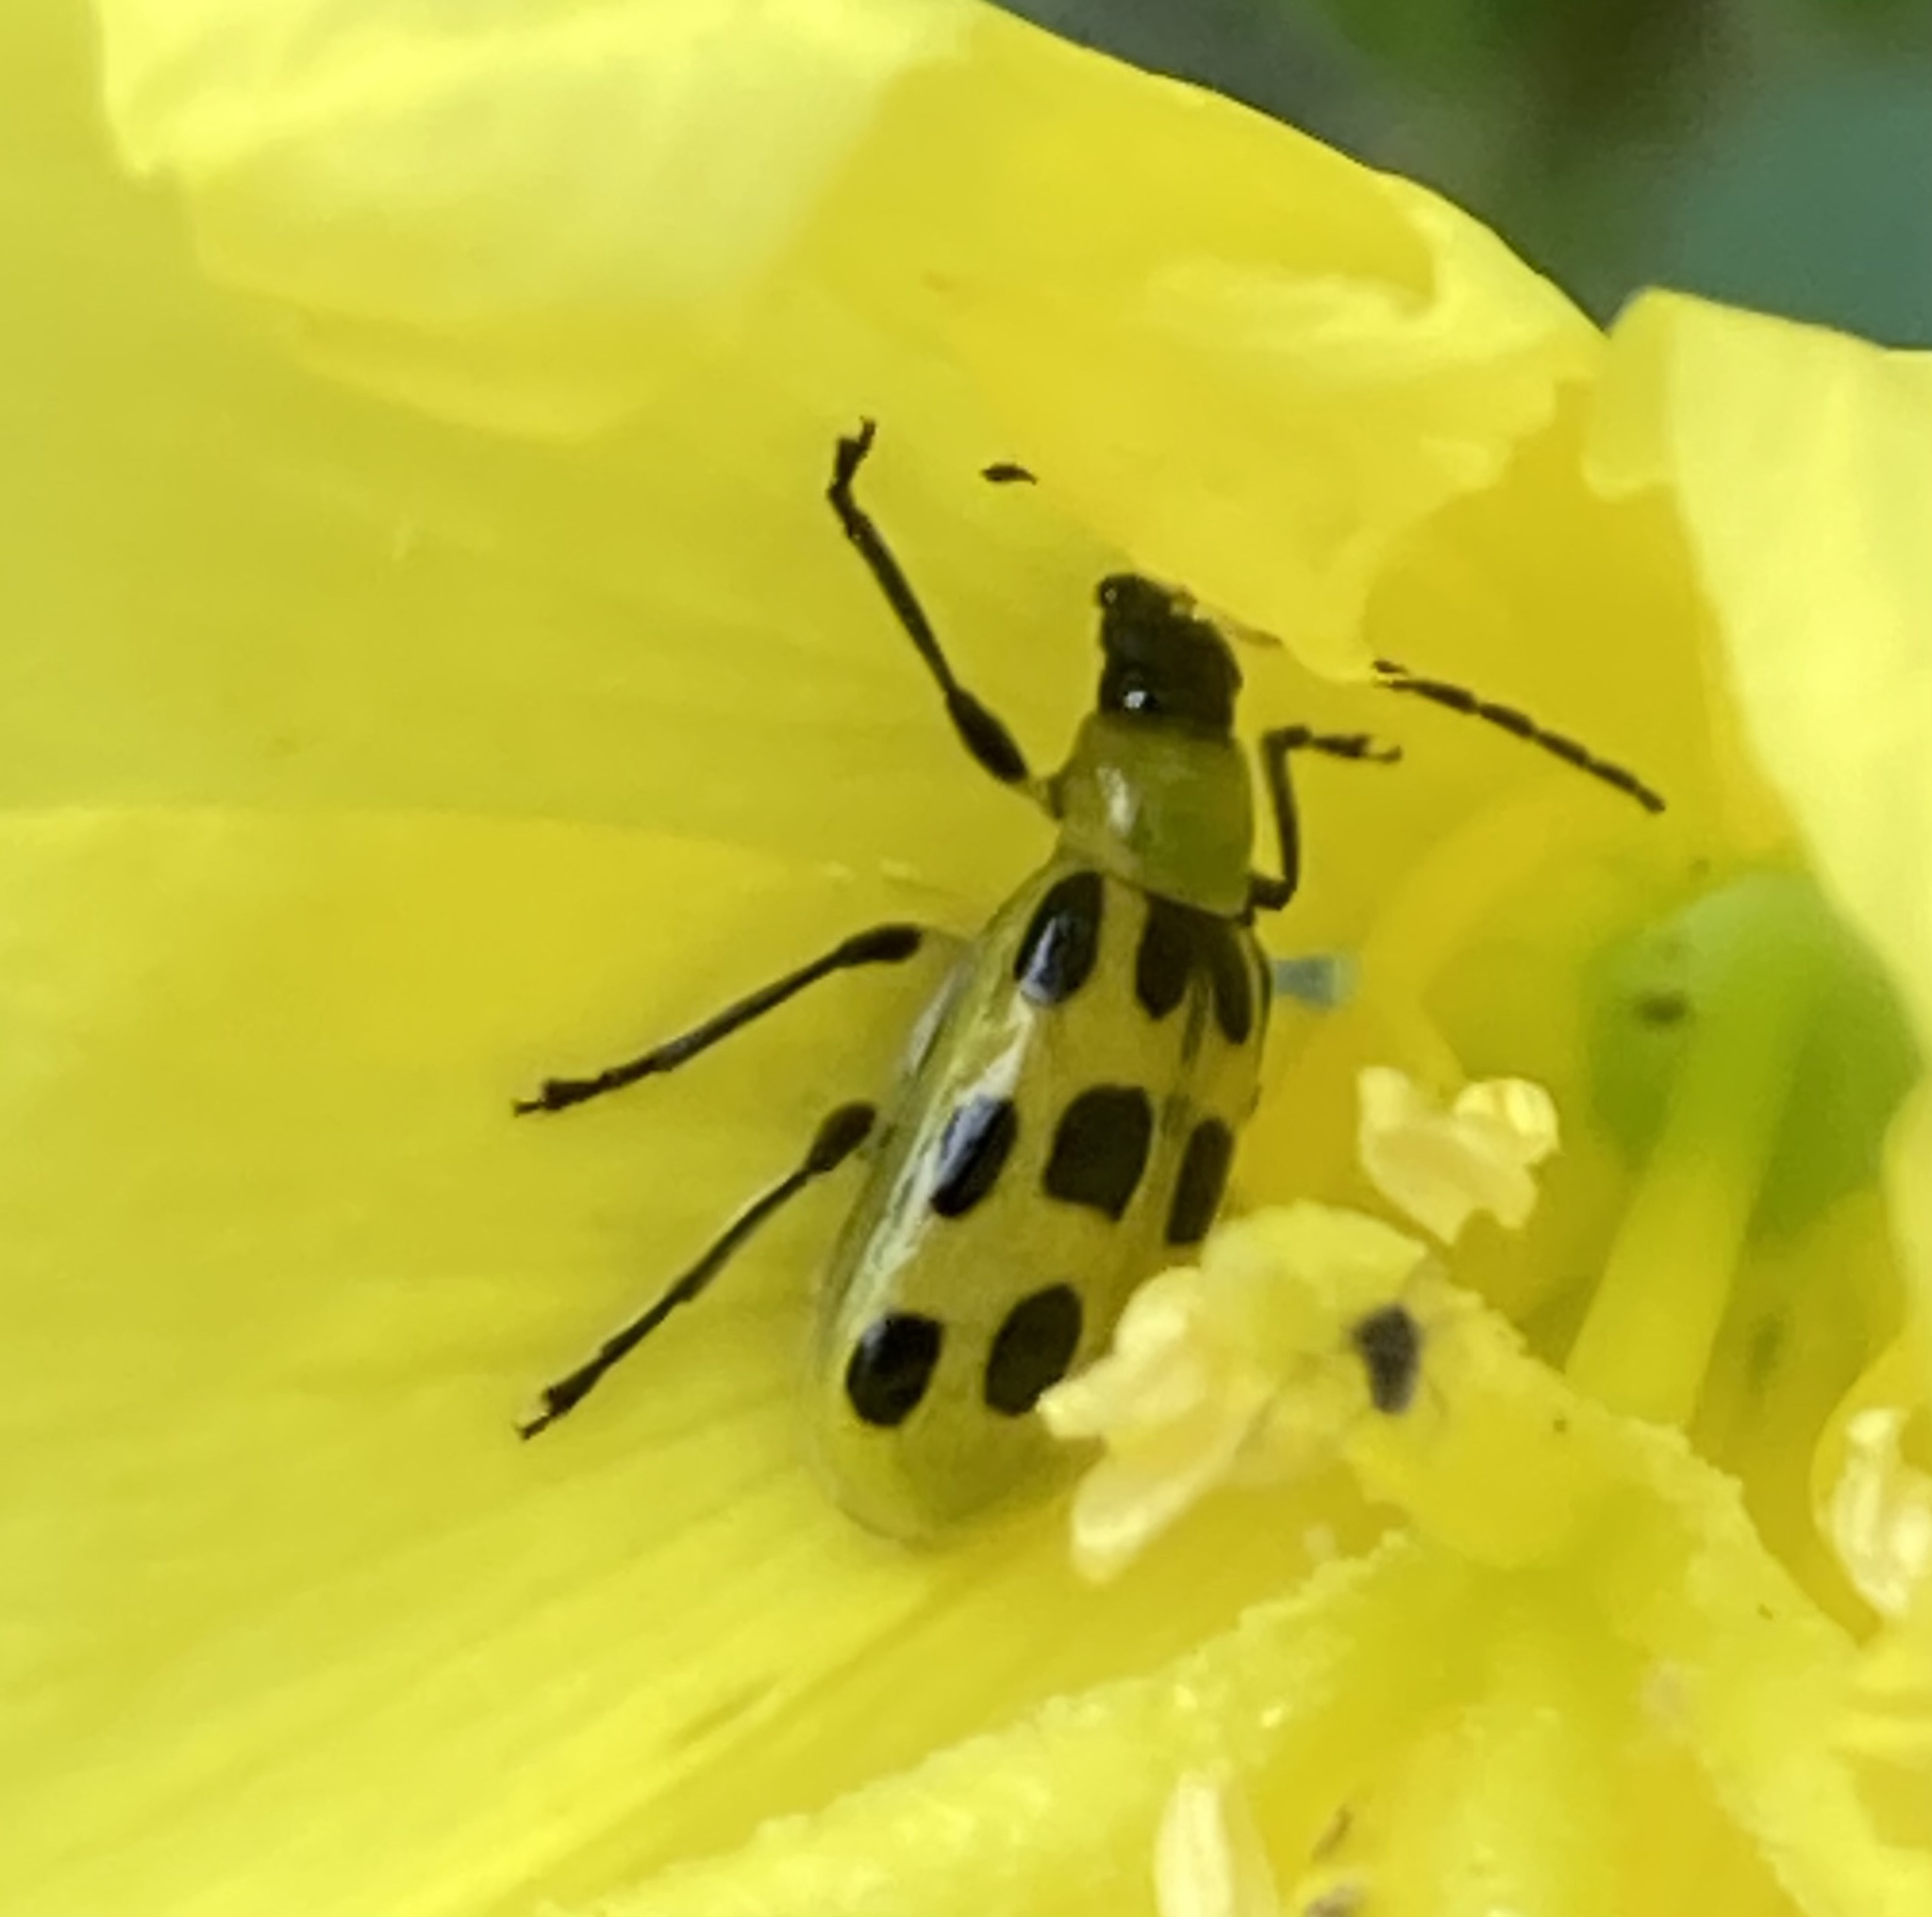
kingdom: Animalia
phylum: Arthropoda
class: Insecta
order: Coleoptera
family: Chrysomelidae
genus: Diabrotica
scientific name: Diabrotica undecimpunctata
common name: Spotted cucumber beetle
